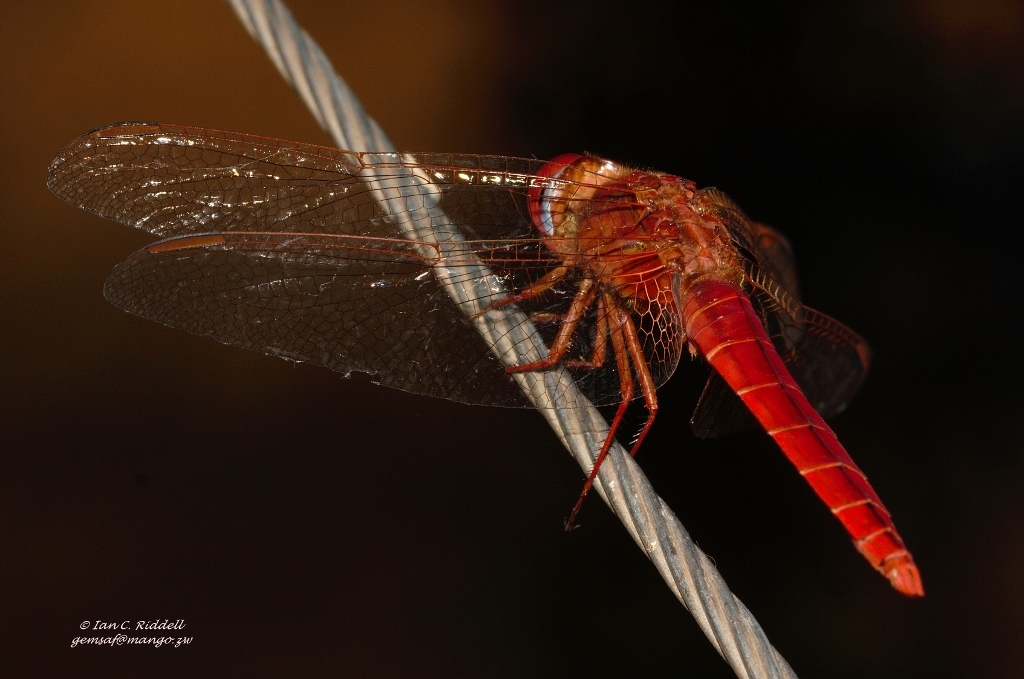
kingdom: Animalia
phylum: Arthropoda
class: Insecta
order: Odonata
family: Libellulidae
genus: Crocothemis
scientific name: Crocothemis erythraea
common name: Scarlet dragonfly
